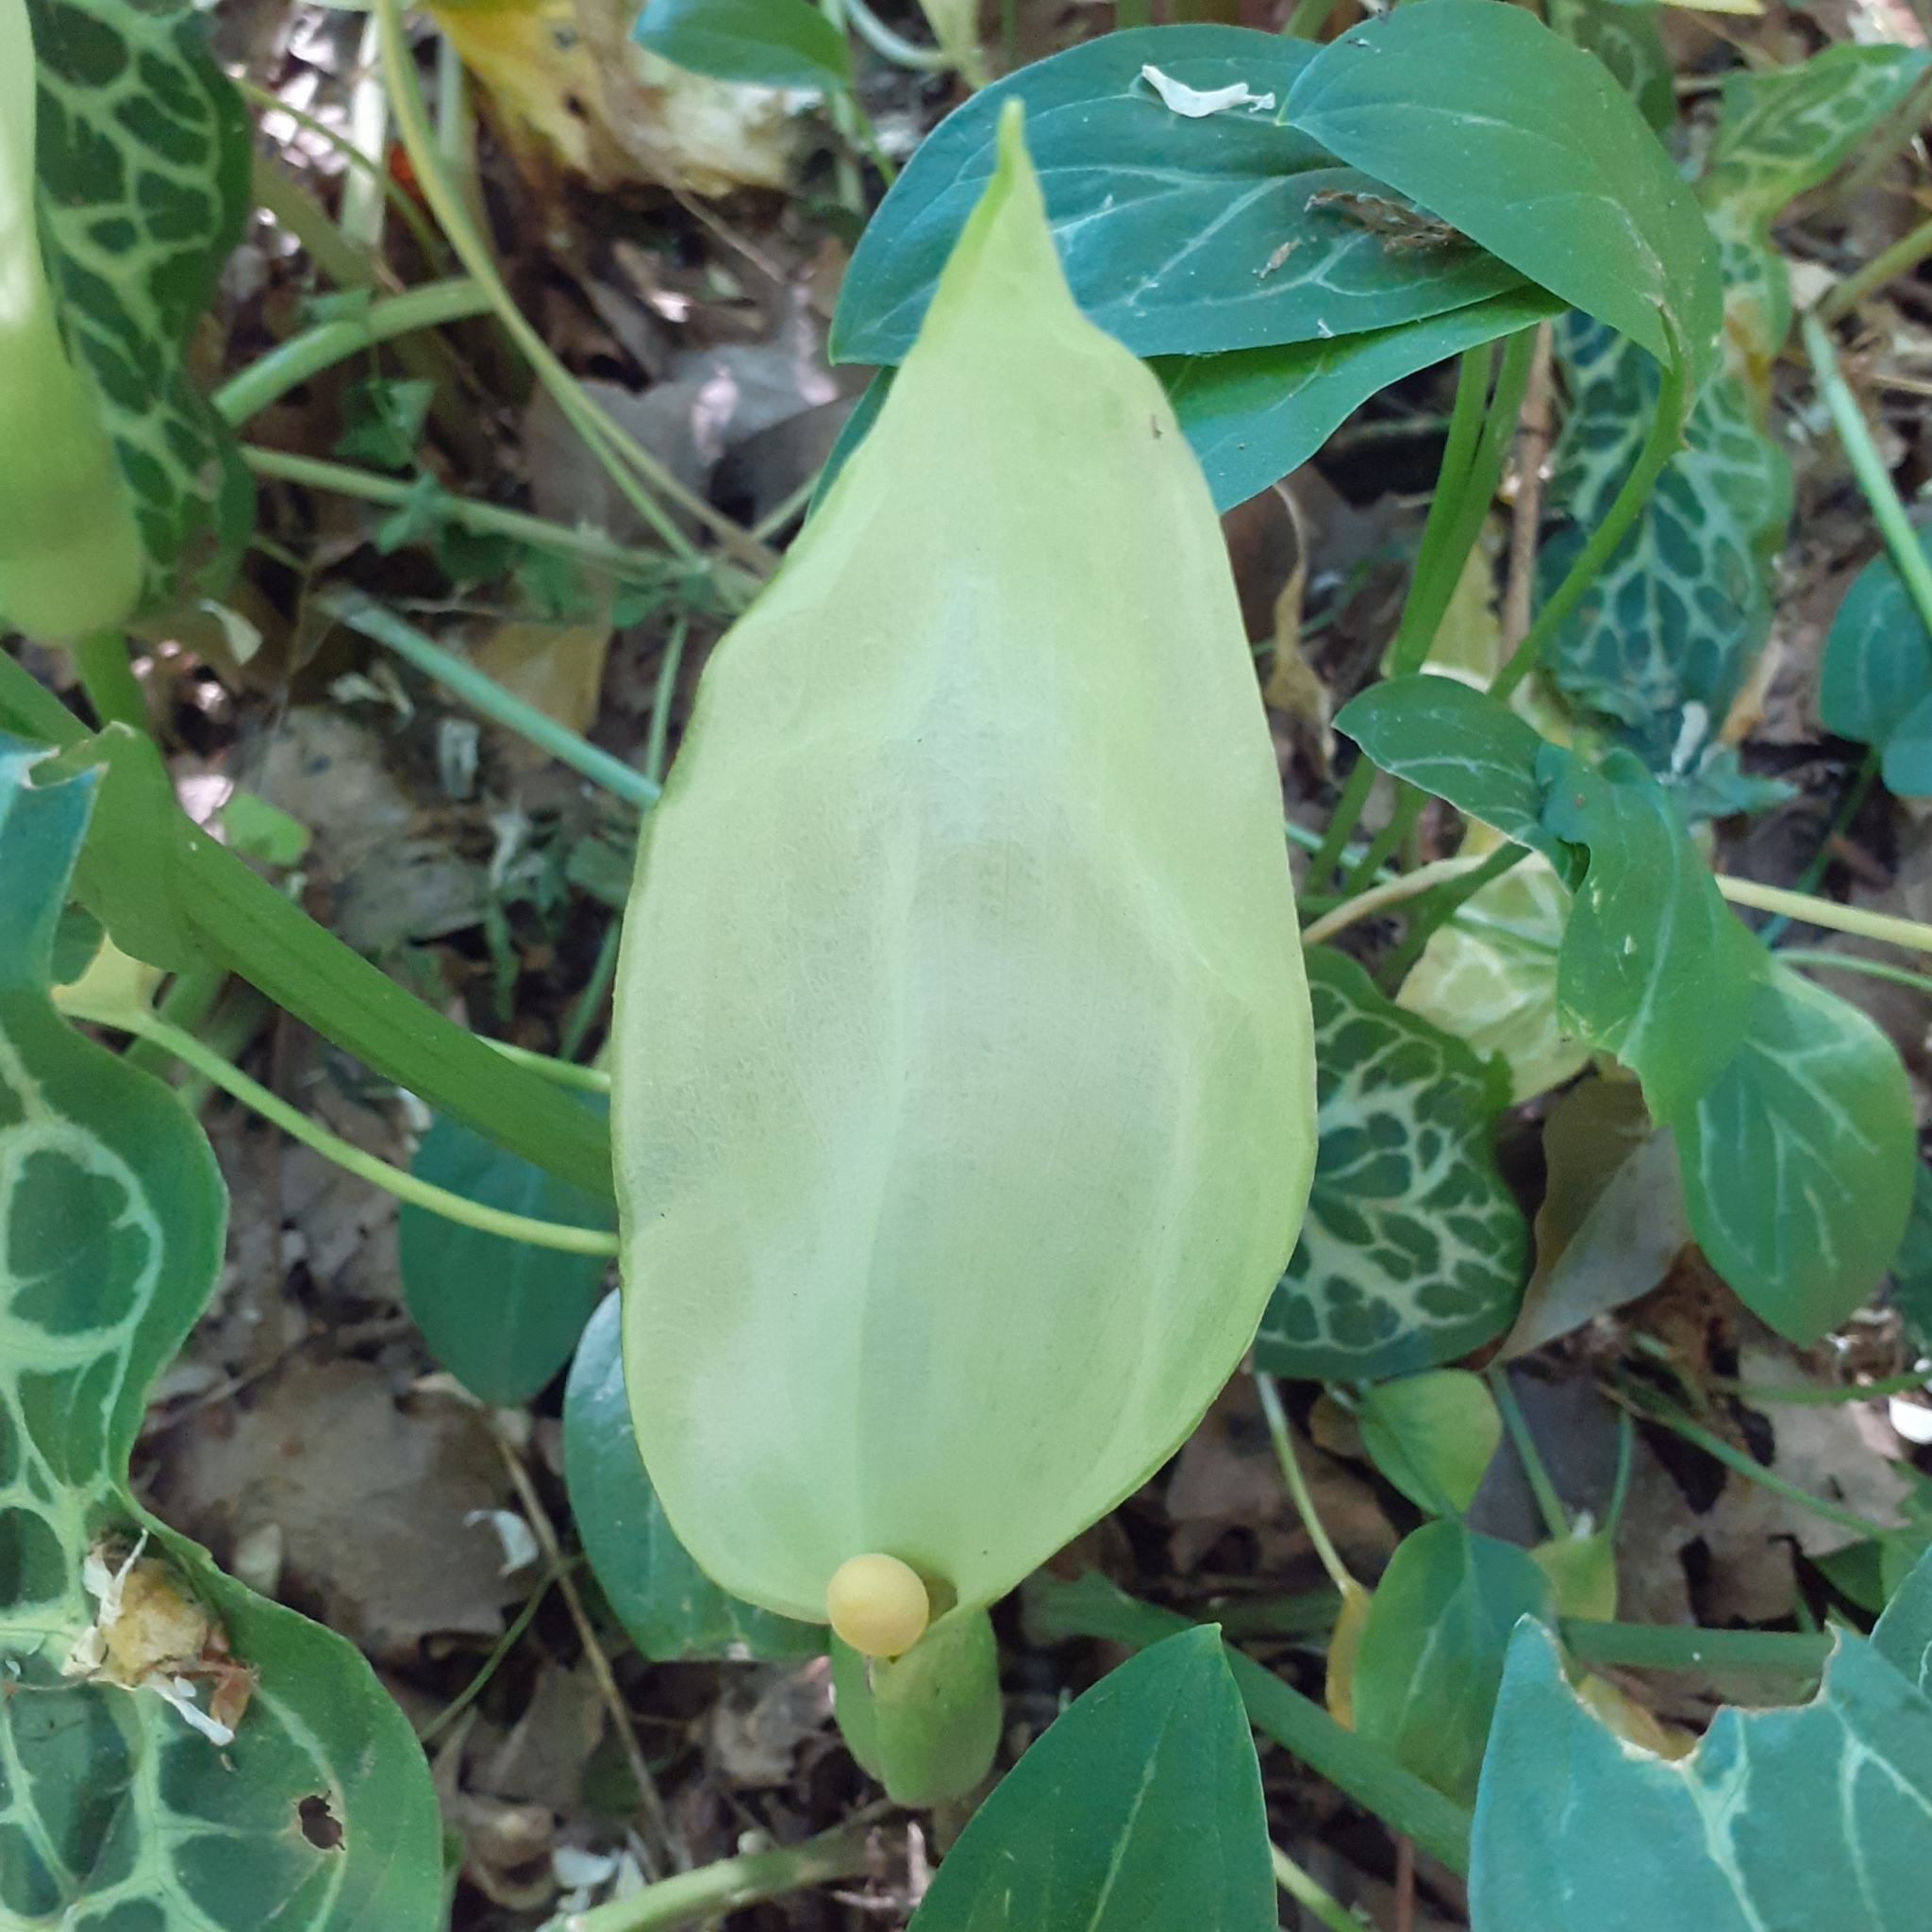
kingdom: Plantae
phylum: Tracheophyta
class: Liliopsida
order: Alismatales
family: Araceae
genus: Arum
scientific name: Arum italicum
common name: Italian lords-and-ladies
